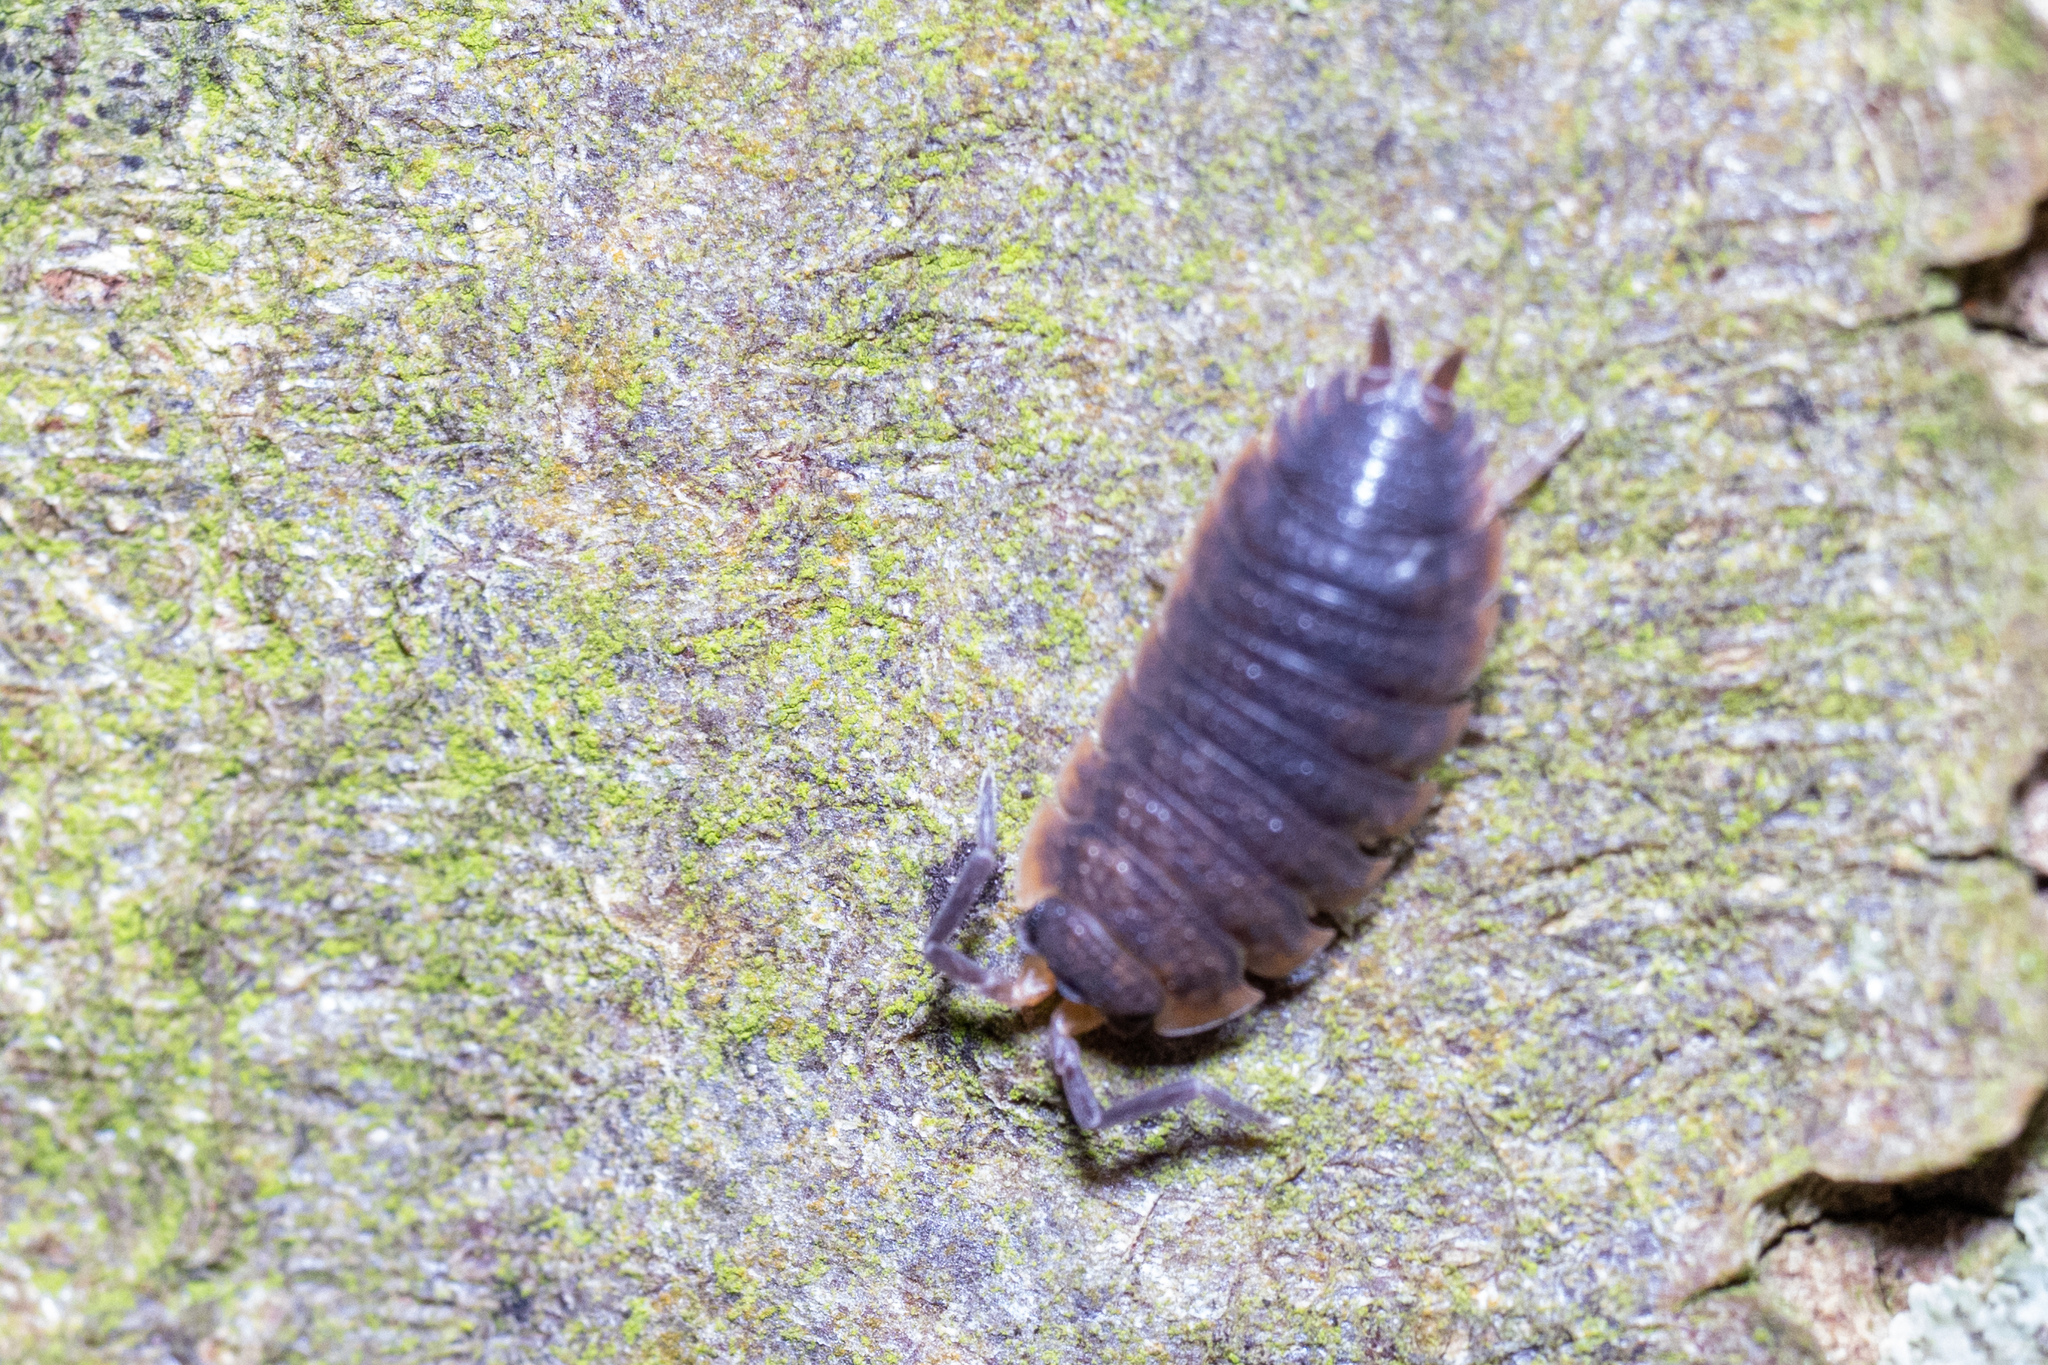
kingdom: Animalia
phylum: Arthropoda
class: Malacostraca
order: Isopoda
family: Porcellionidae
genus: Porcellio
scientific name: Porcellio scaber
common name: Common rough woodlouse
